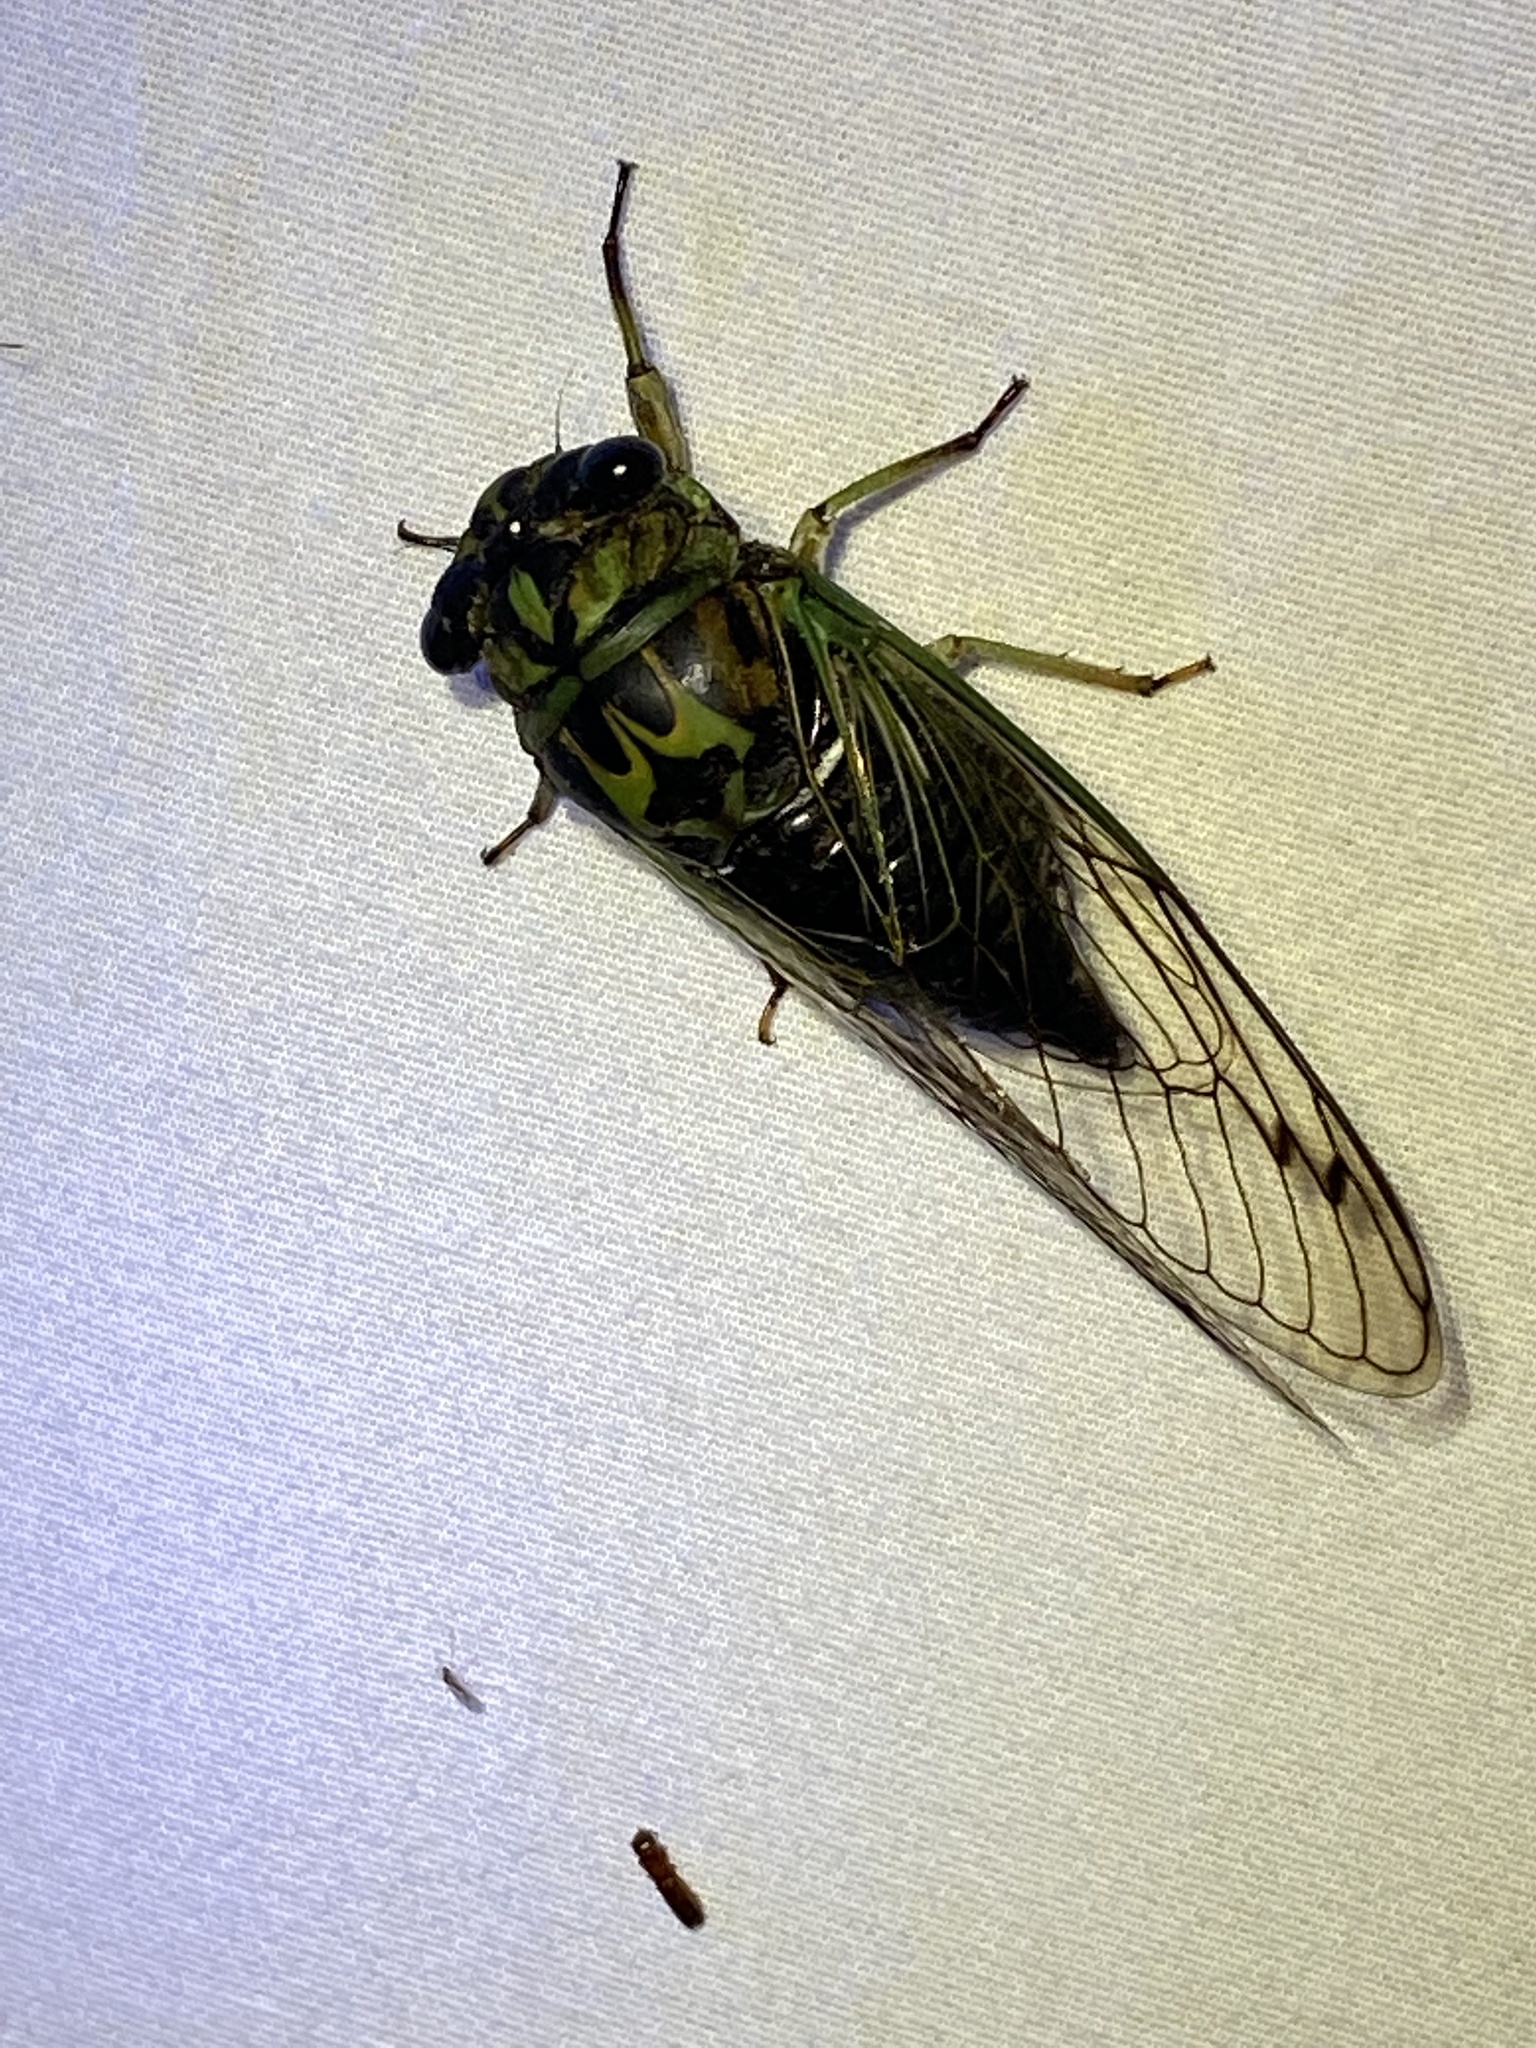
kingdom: Animalia
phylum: Arthropoda
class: Insecta
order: Hemiptera
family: Cicadidae
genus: Neotibicen
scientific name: Neotibicen robinsonianus
